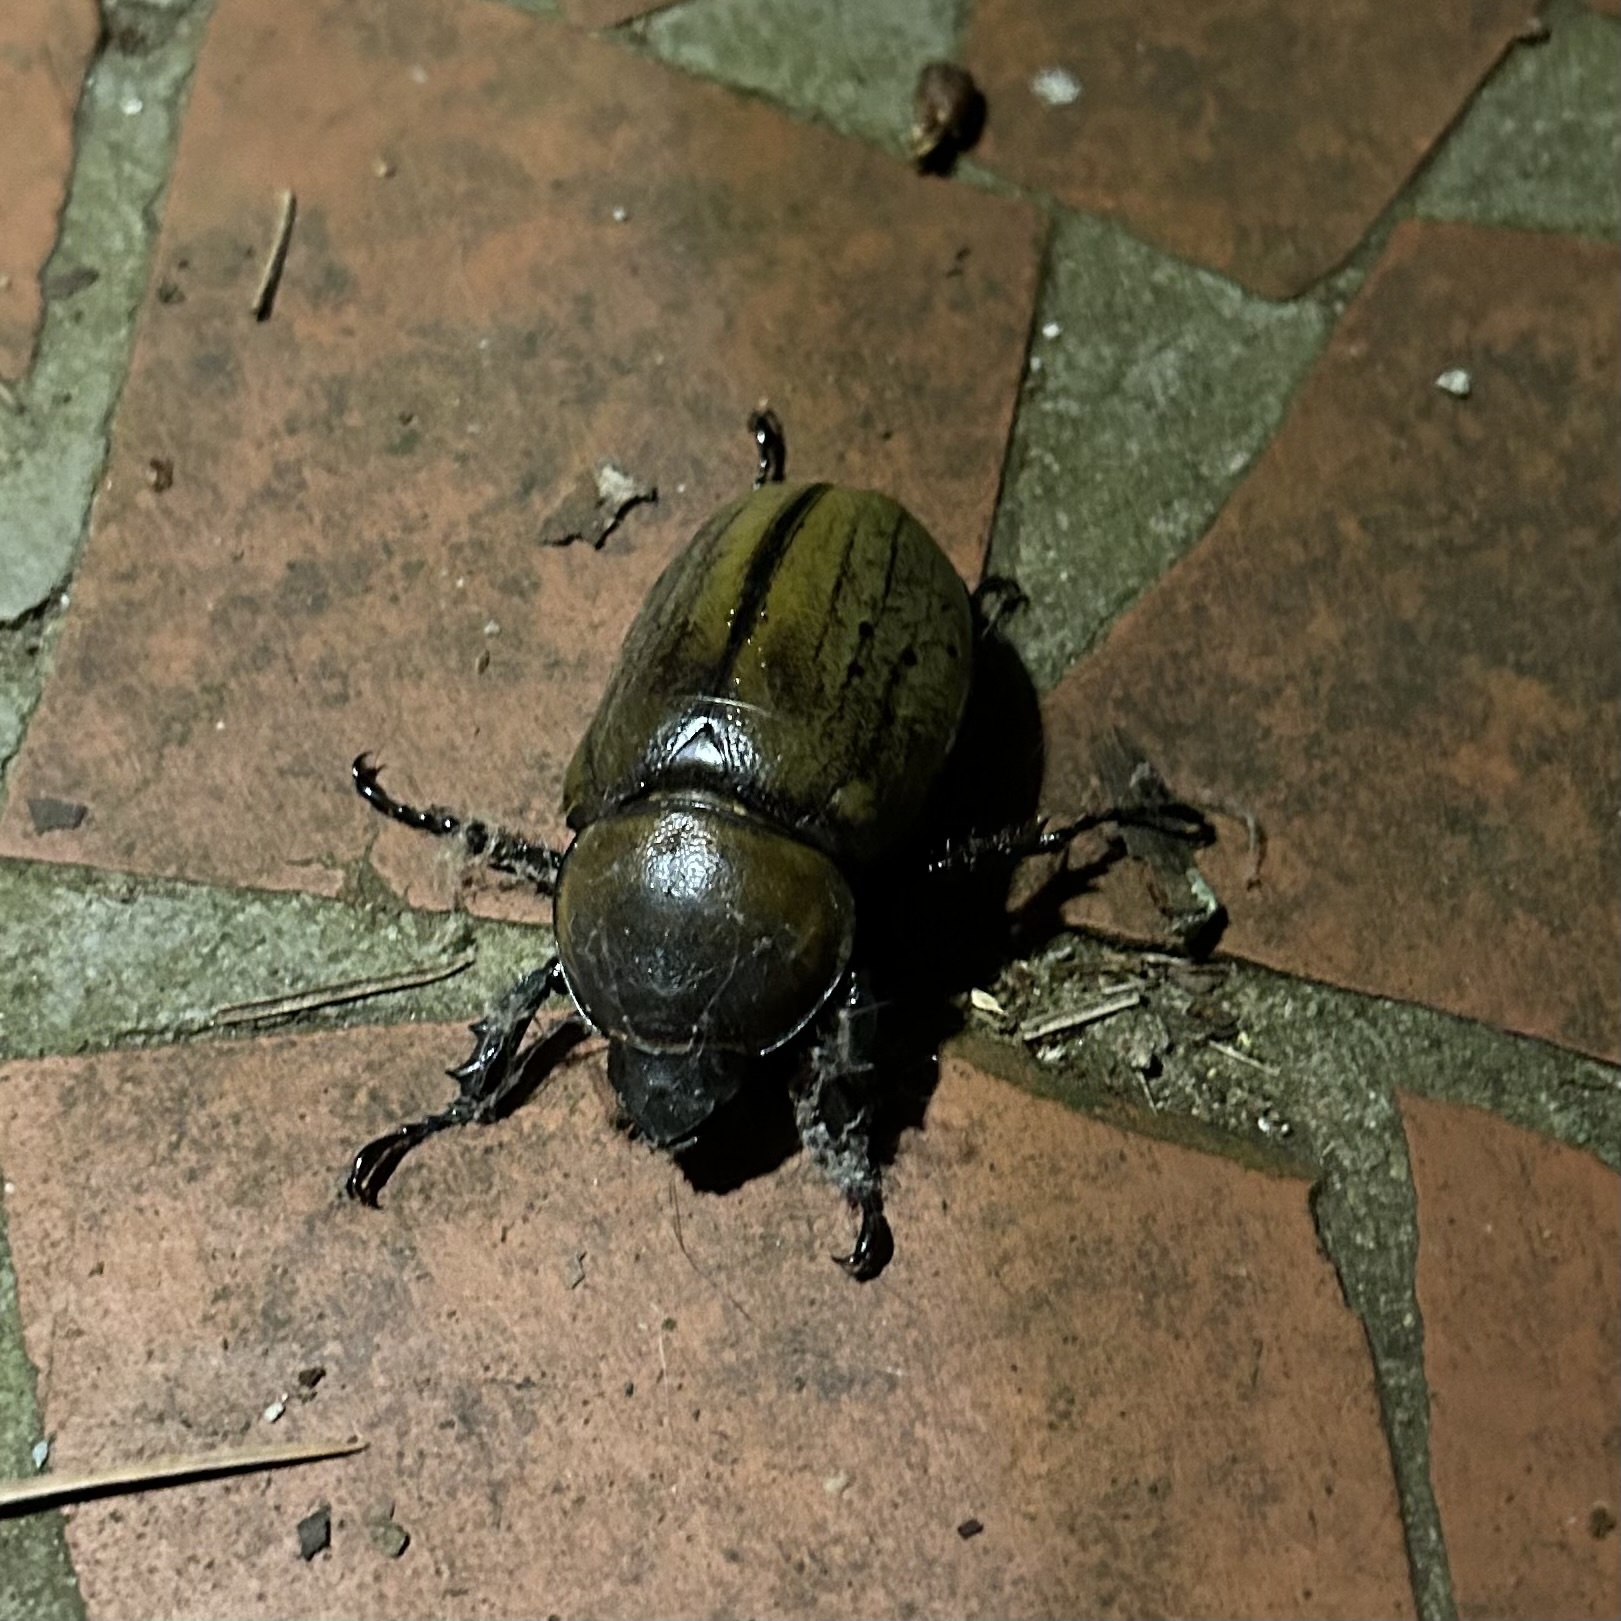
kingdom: Animalia
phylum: Arthropoda
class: Insecta
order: Coleoptera
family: Scarabaeidae
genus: Dynastes
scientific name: Dynastes tityus
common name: Eastern hercules beetle
